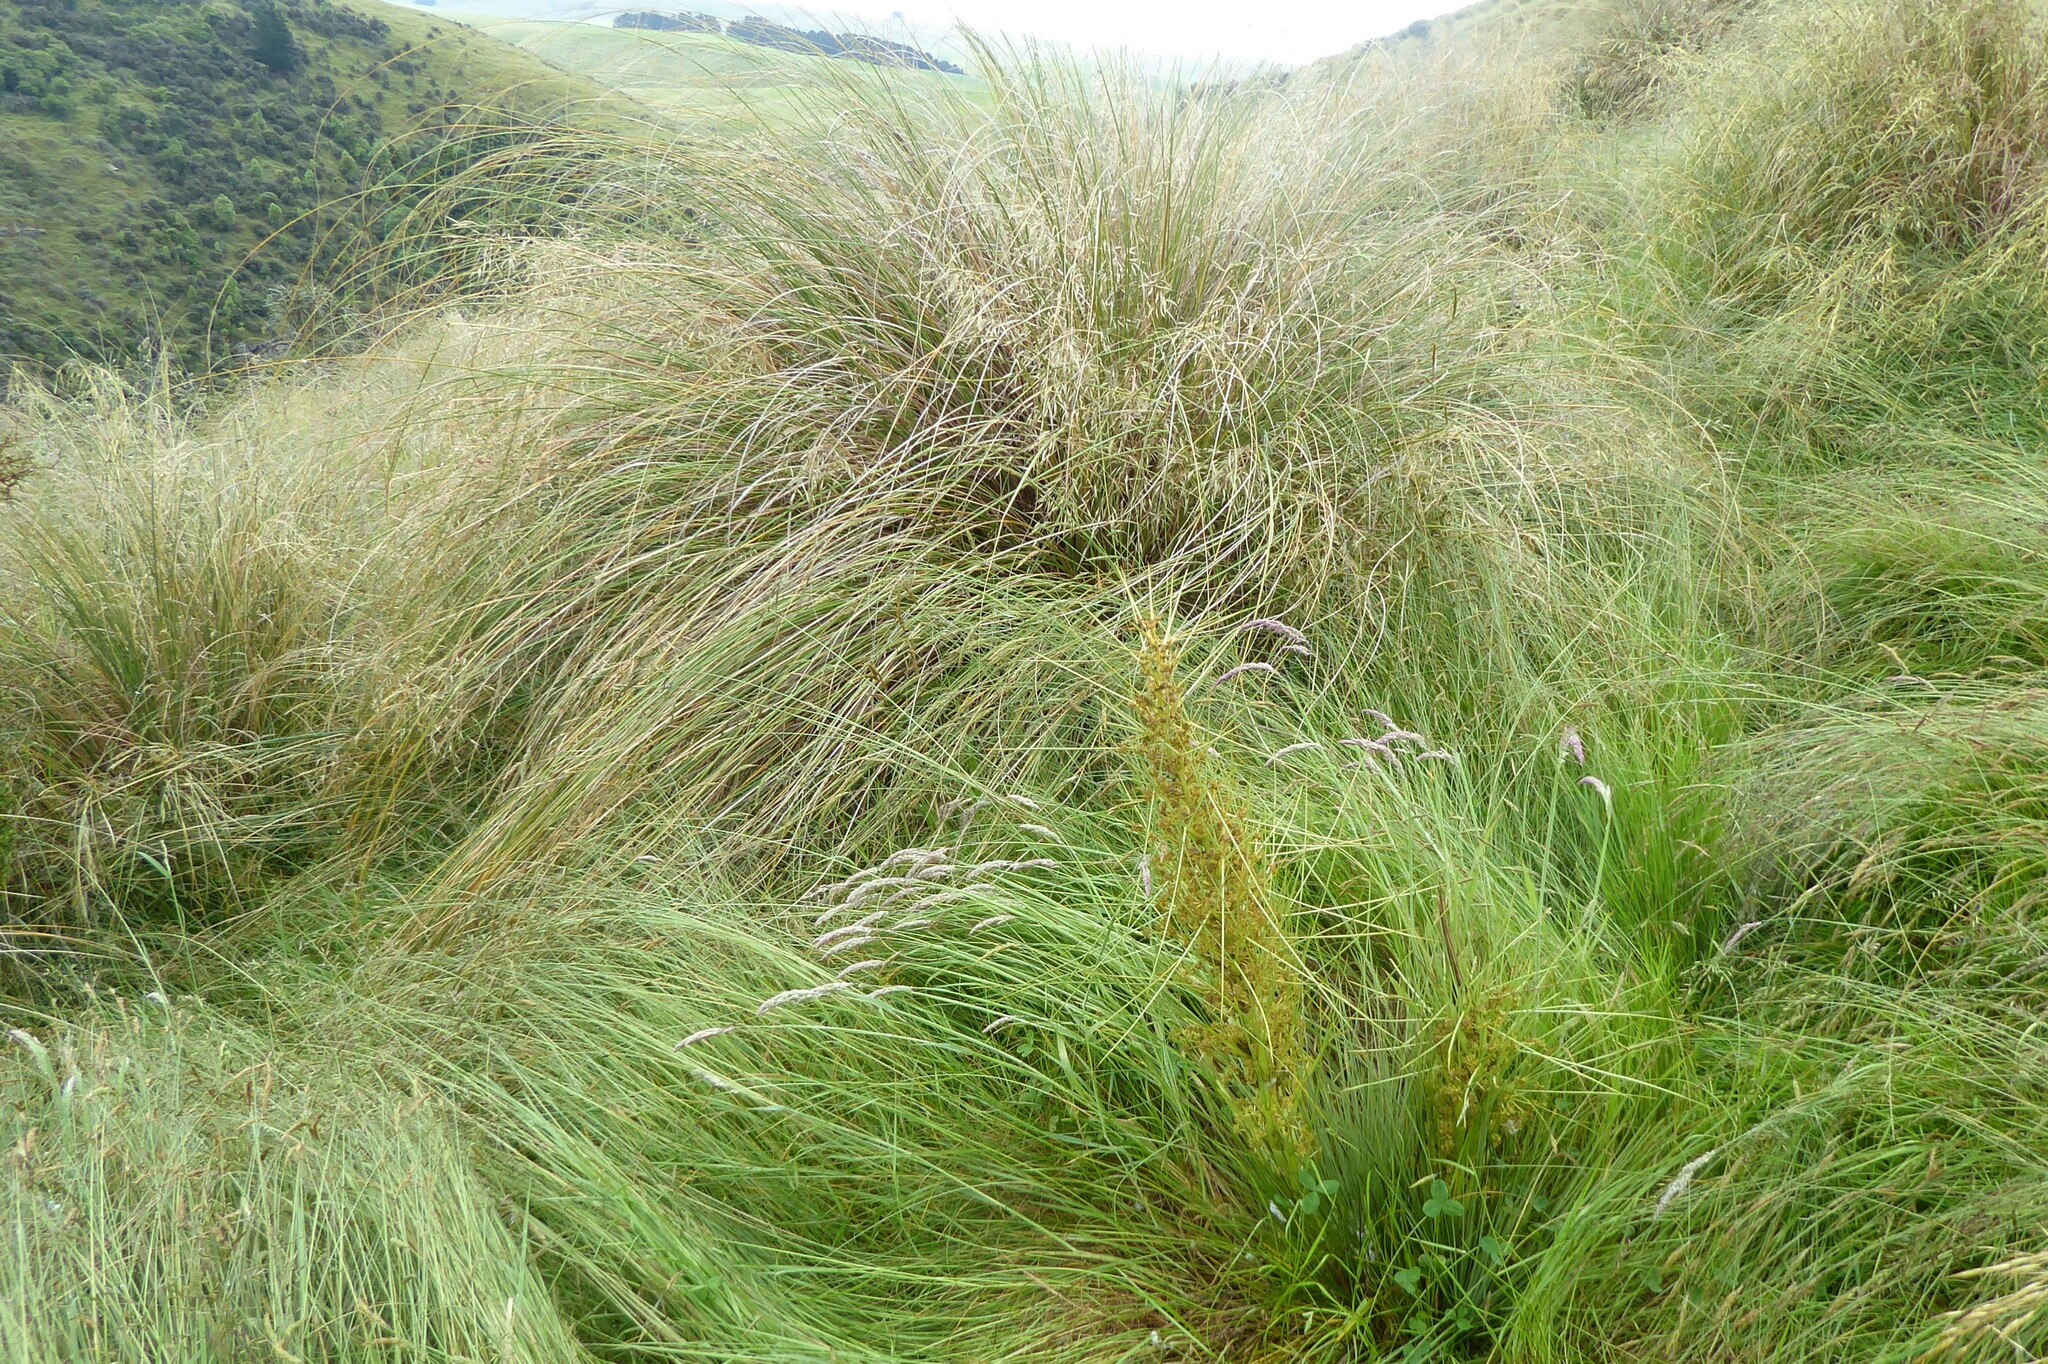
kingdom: Plantae
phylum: Tracheophyta
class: Magnoliopsida
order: Apiales
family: Apiaceae
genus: Aciphylla
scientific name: Aciphylla subflabellata
